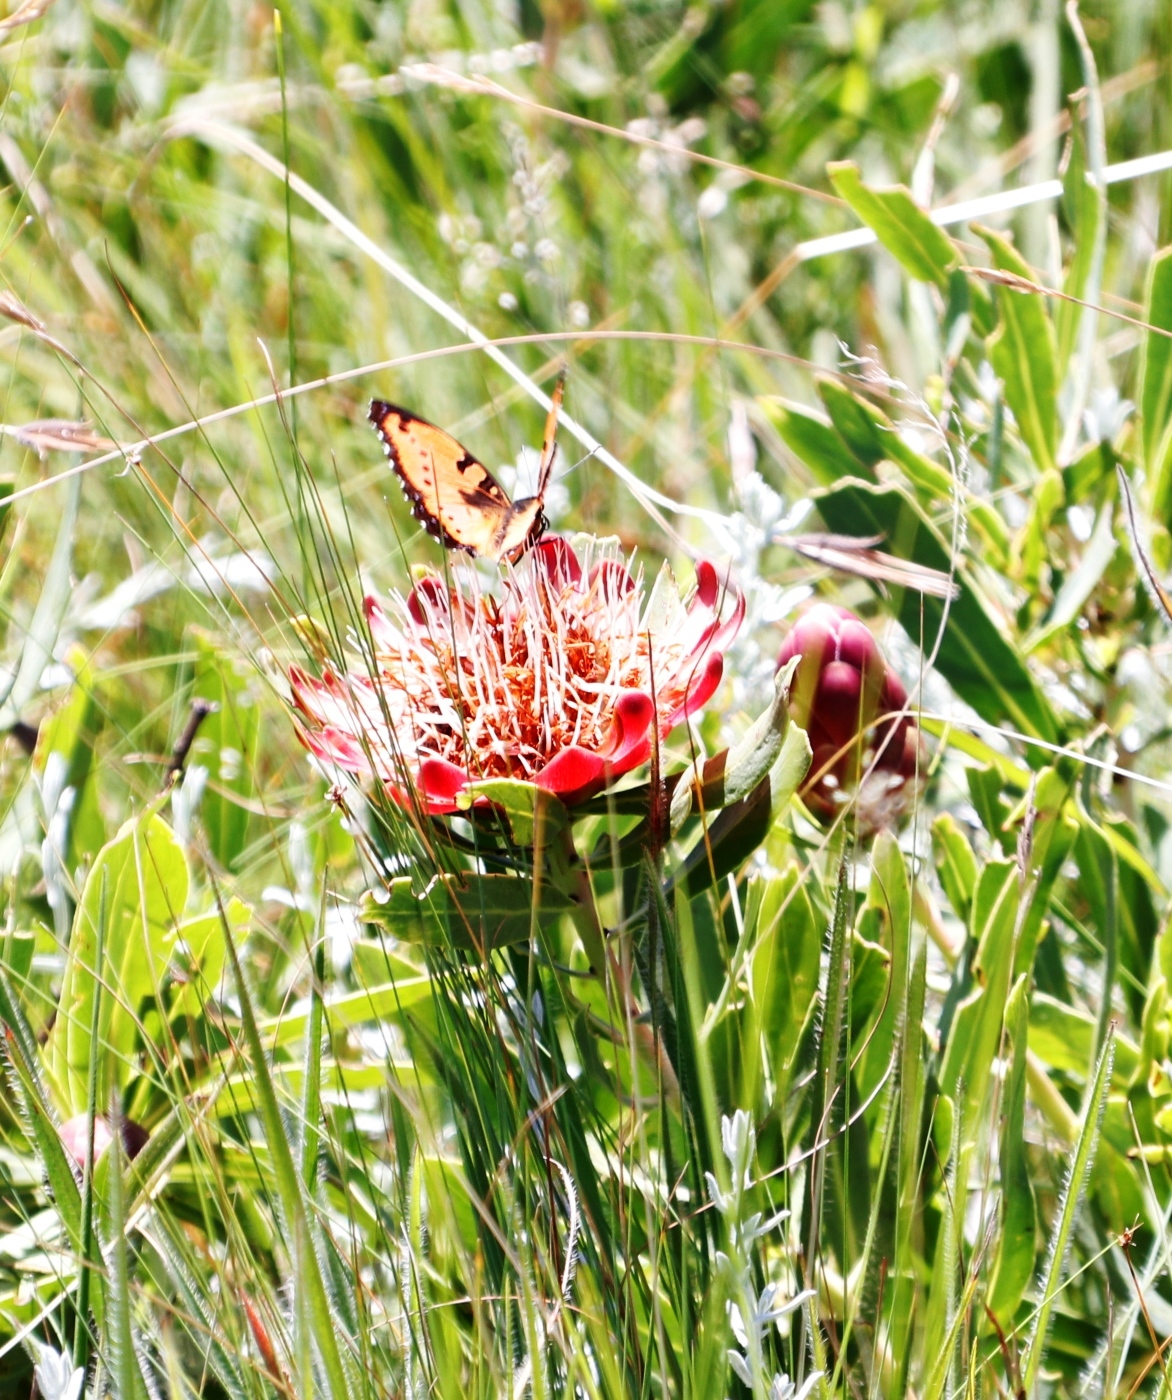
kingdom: Animalia
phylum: Arthropoda
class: Insecta
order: Lepidoptera
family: Nymphalidae
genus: Precis
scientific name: Precis octavia
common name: Gaudy commodore
